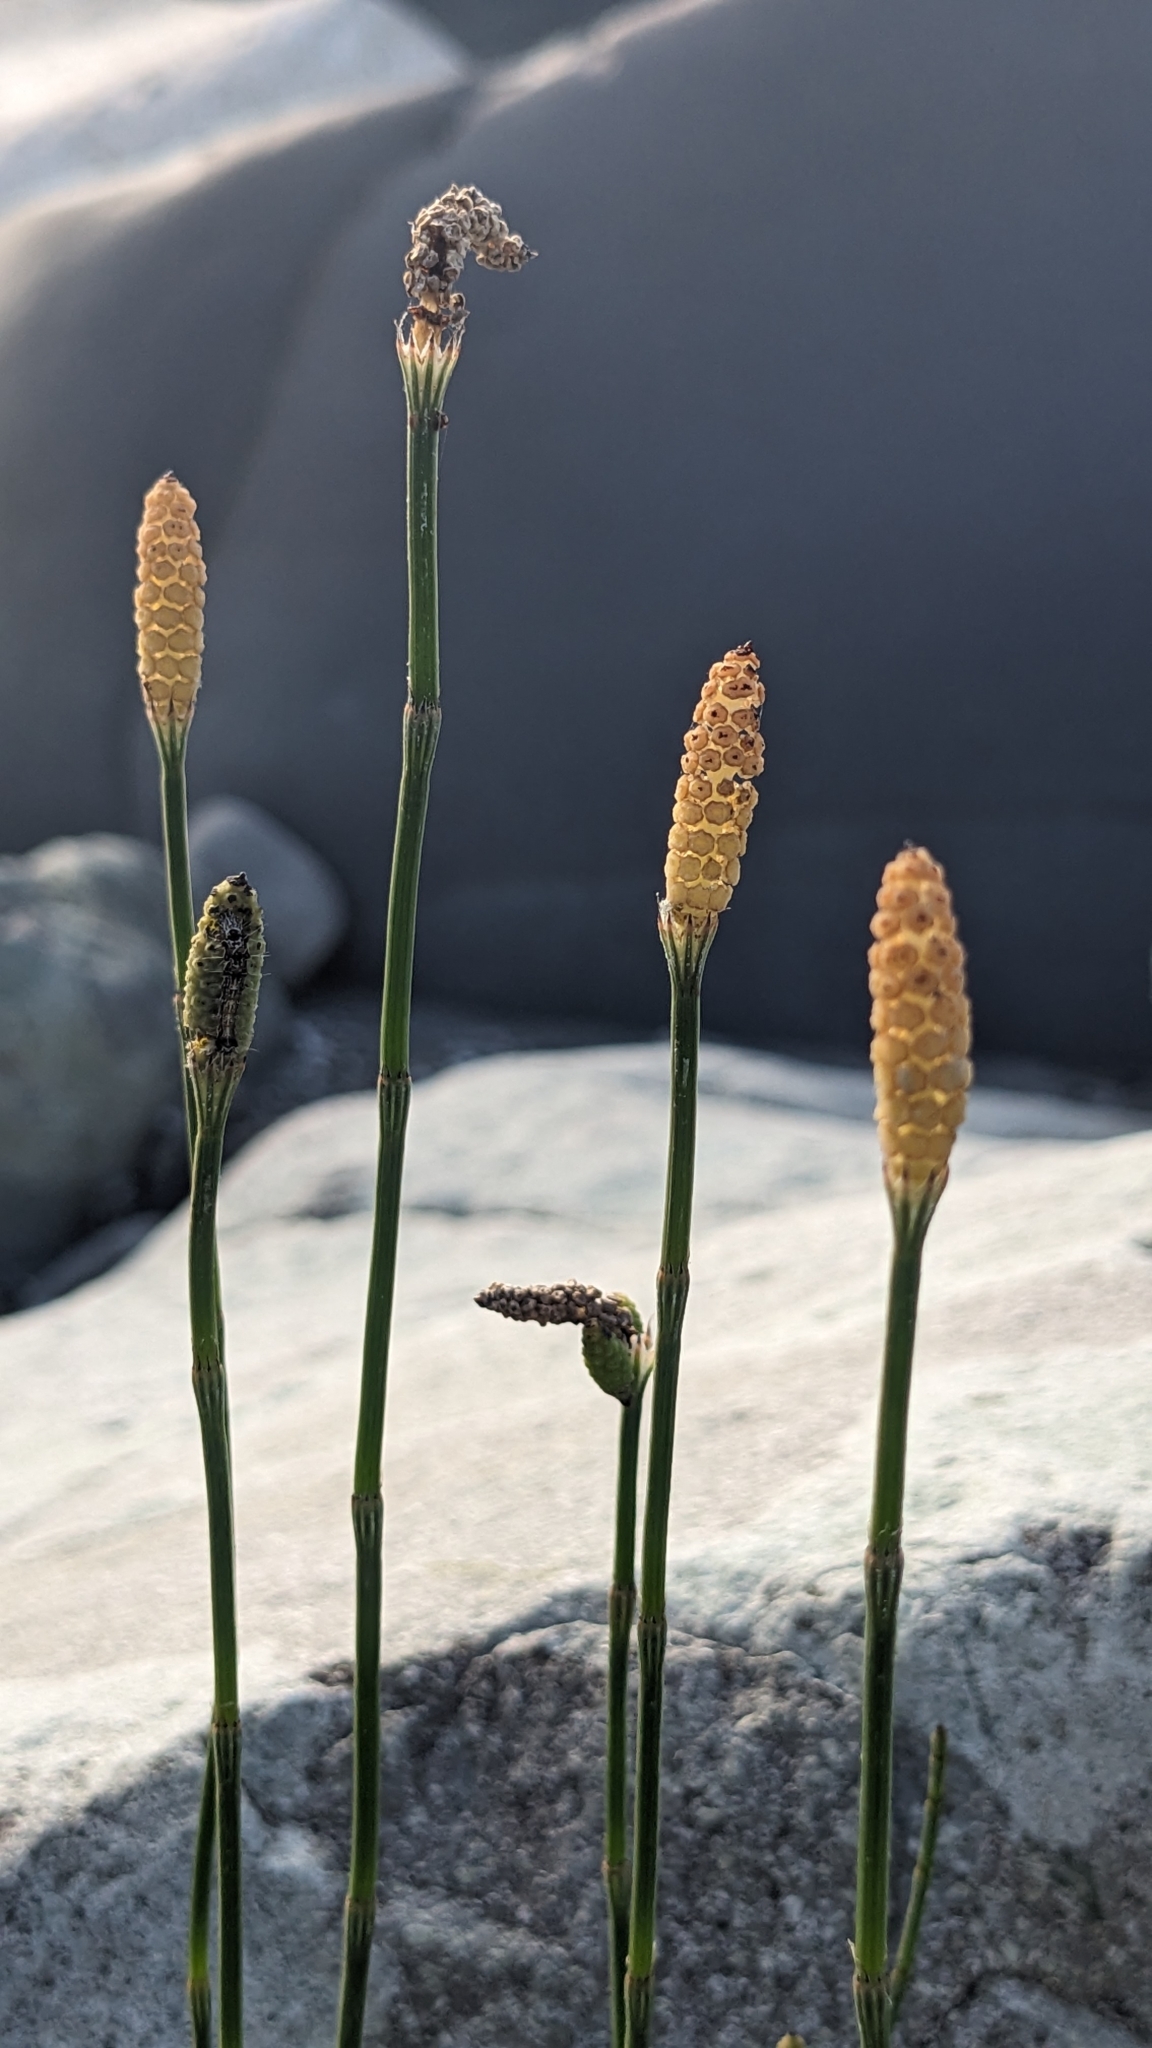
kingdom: Plantae
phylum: Tracheophyta
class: Polypodiopsida
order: Equisetales
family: Equisetaceae
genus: Equisetum
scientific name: Equisetum ramosissimum
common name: Branched horsetail
